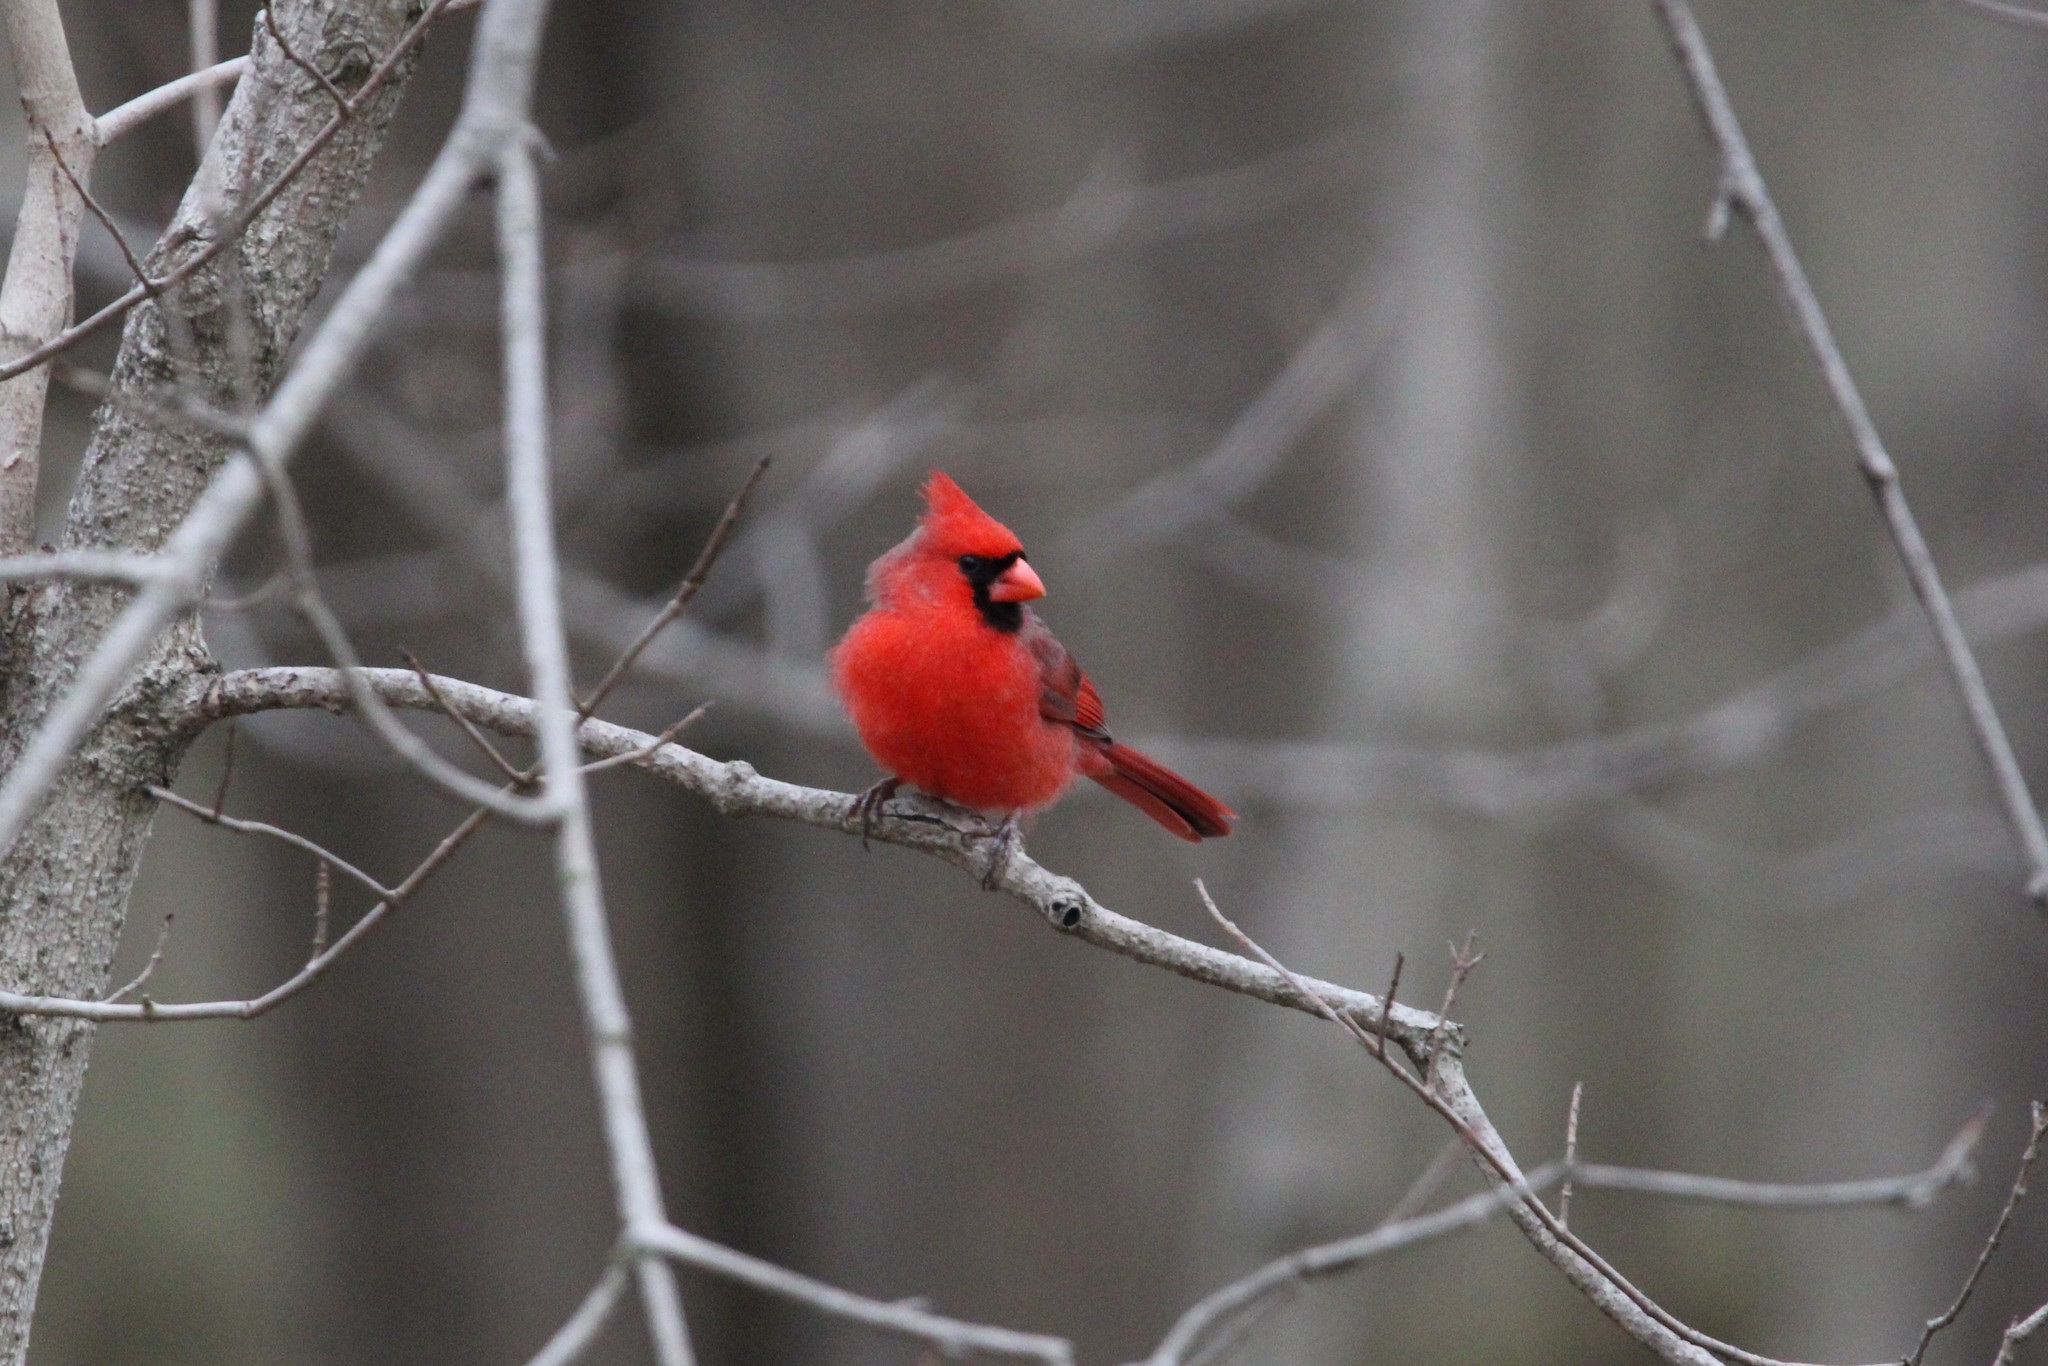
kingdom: Animalia
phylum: Chordata
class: Aves
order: Passeriformes
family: Cardinalidae
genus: Cardinalis
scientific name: Cardinalis cardinalis
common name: Northern cardinal
